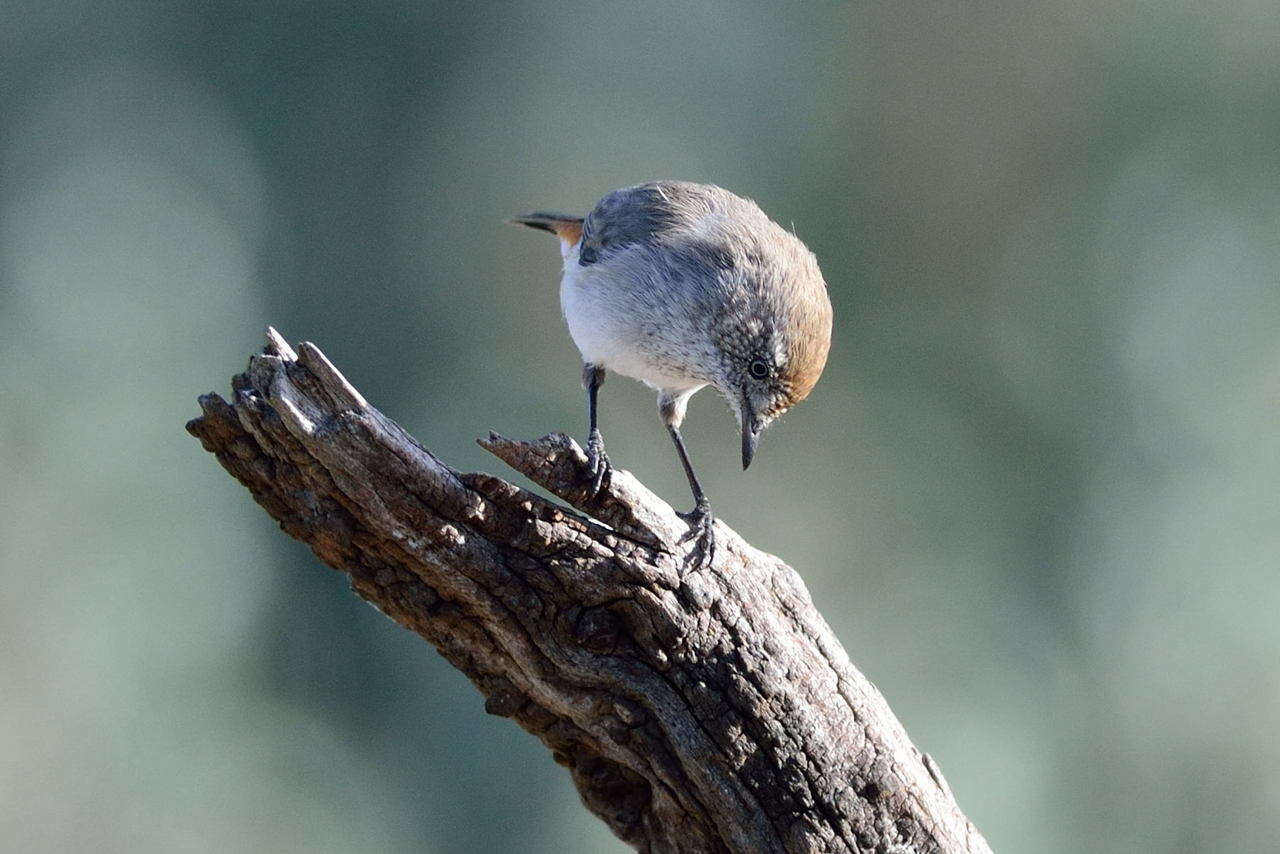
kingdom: Animalia
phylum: Chordata
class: Aves
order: Passeriformes
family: Acanthizidae
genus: Acanthiza
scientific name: Acanthiza uropygialis
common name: Chestnut-rumped thornbill
